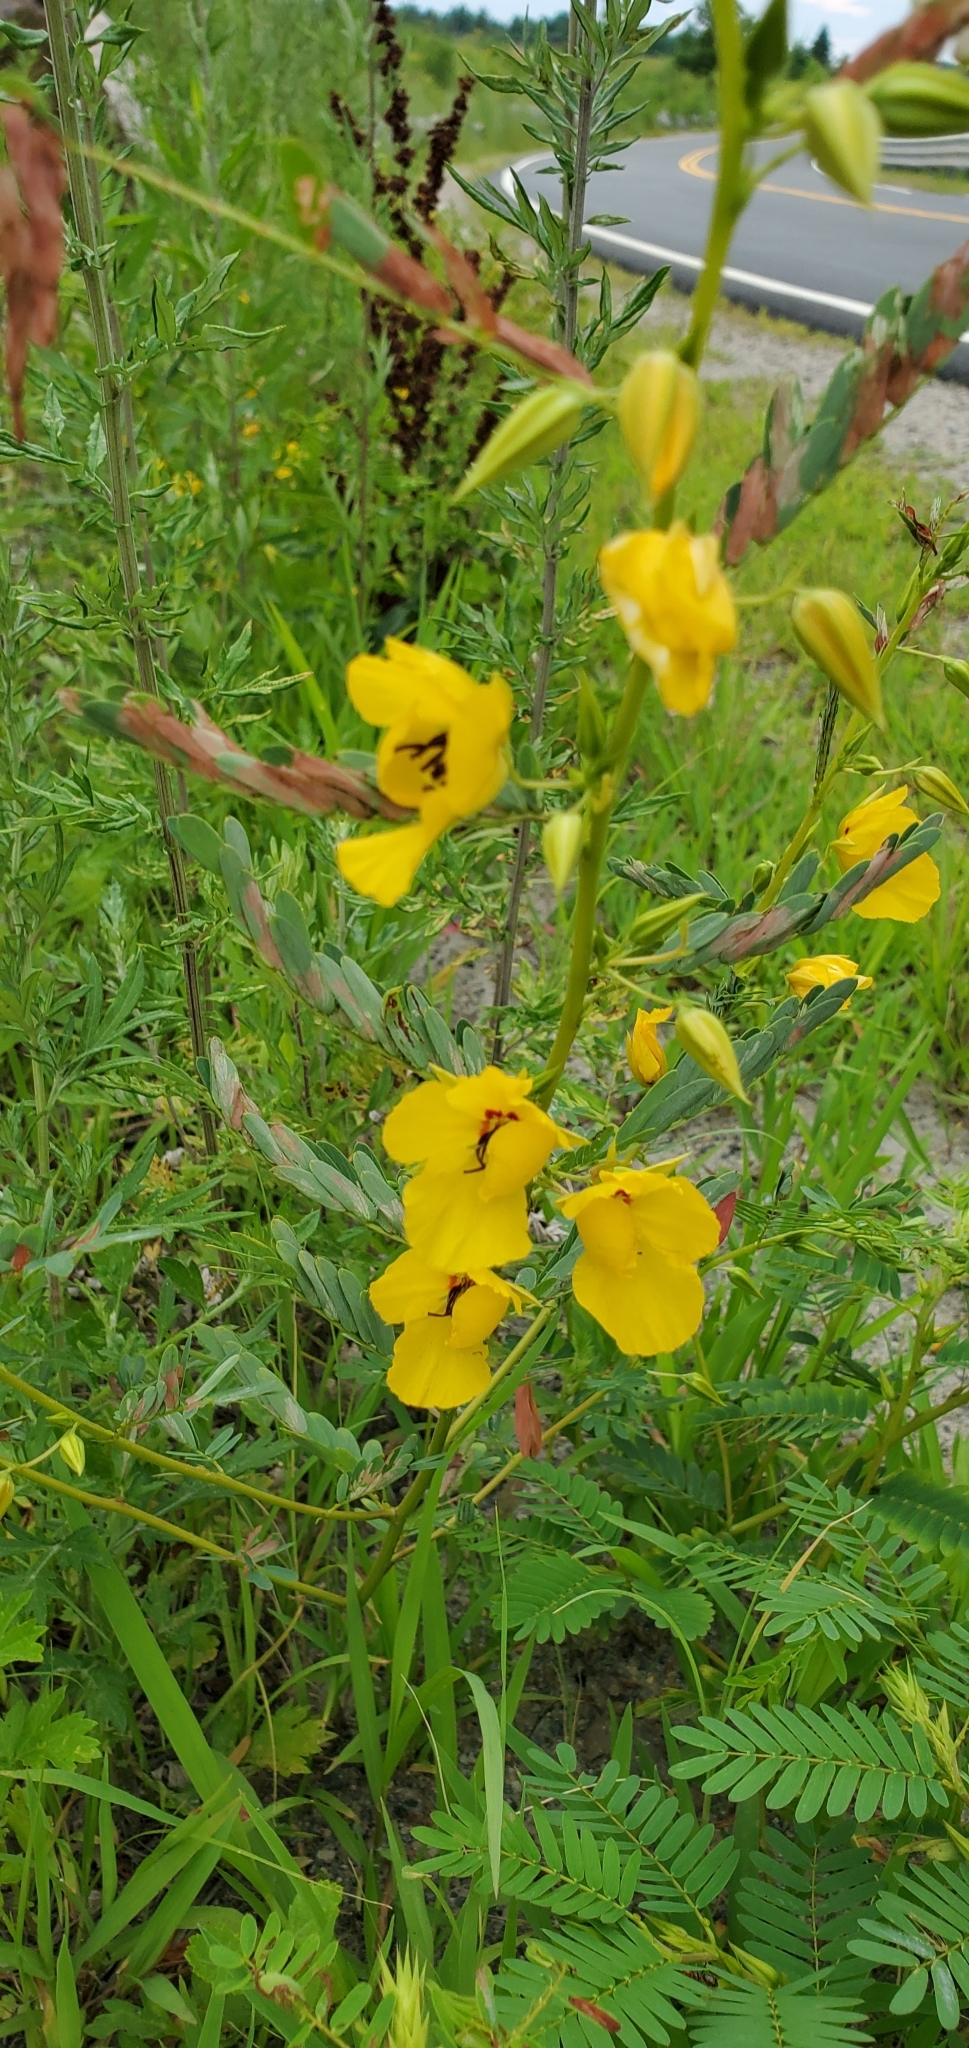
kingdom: Plantae
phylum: Tracheophyta
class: Magnoliopsida
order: Fabales
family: Fabaceae
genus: Chamaecrista
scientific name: Chamaecrista fasciculata
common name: Golden cassia
